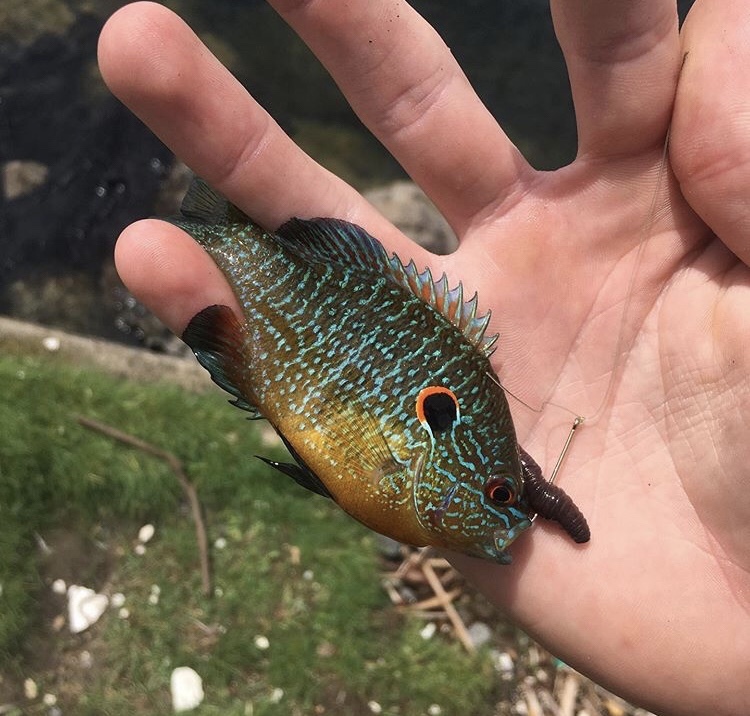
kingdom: Animalia
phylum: Chordata
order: Perciformes
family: Centrarchidae
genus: Lepomis
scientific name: Lepomis peltastes
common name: Northern sunfish
